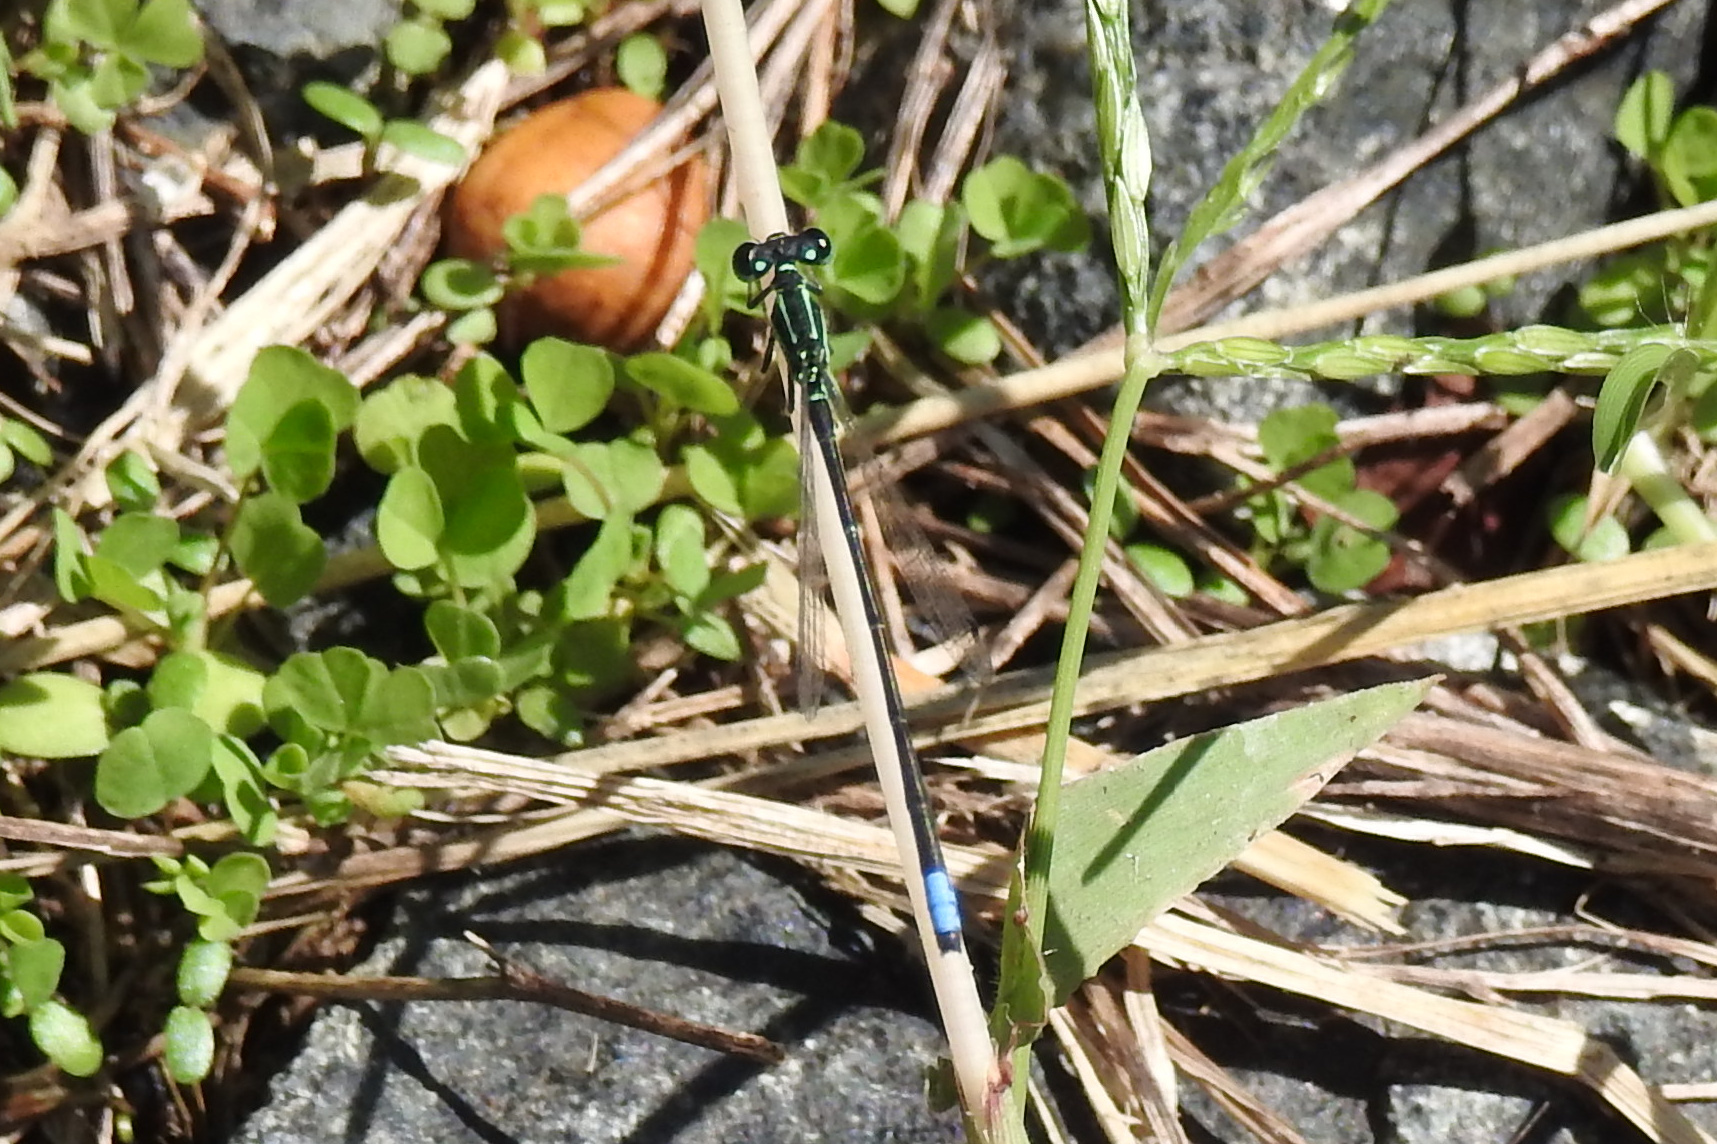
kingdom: Animalia
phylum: Arthropoda
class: Insecta
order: Odonata
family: Coenagrionidae
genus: Ischnura
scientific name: Ischnura verticalis
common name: Eastern forktail
